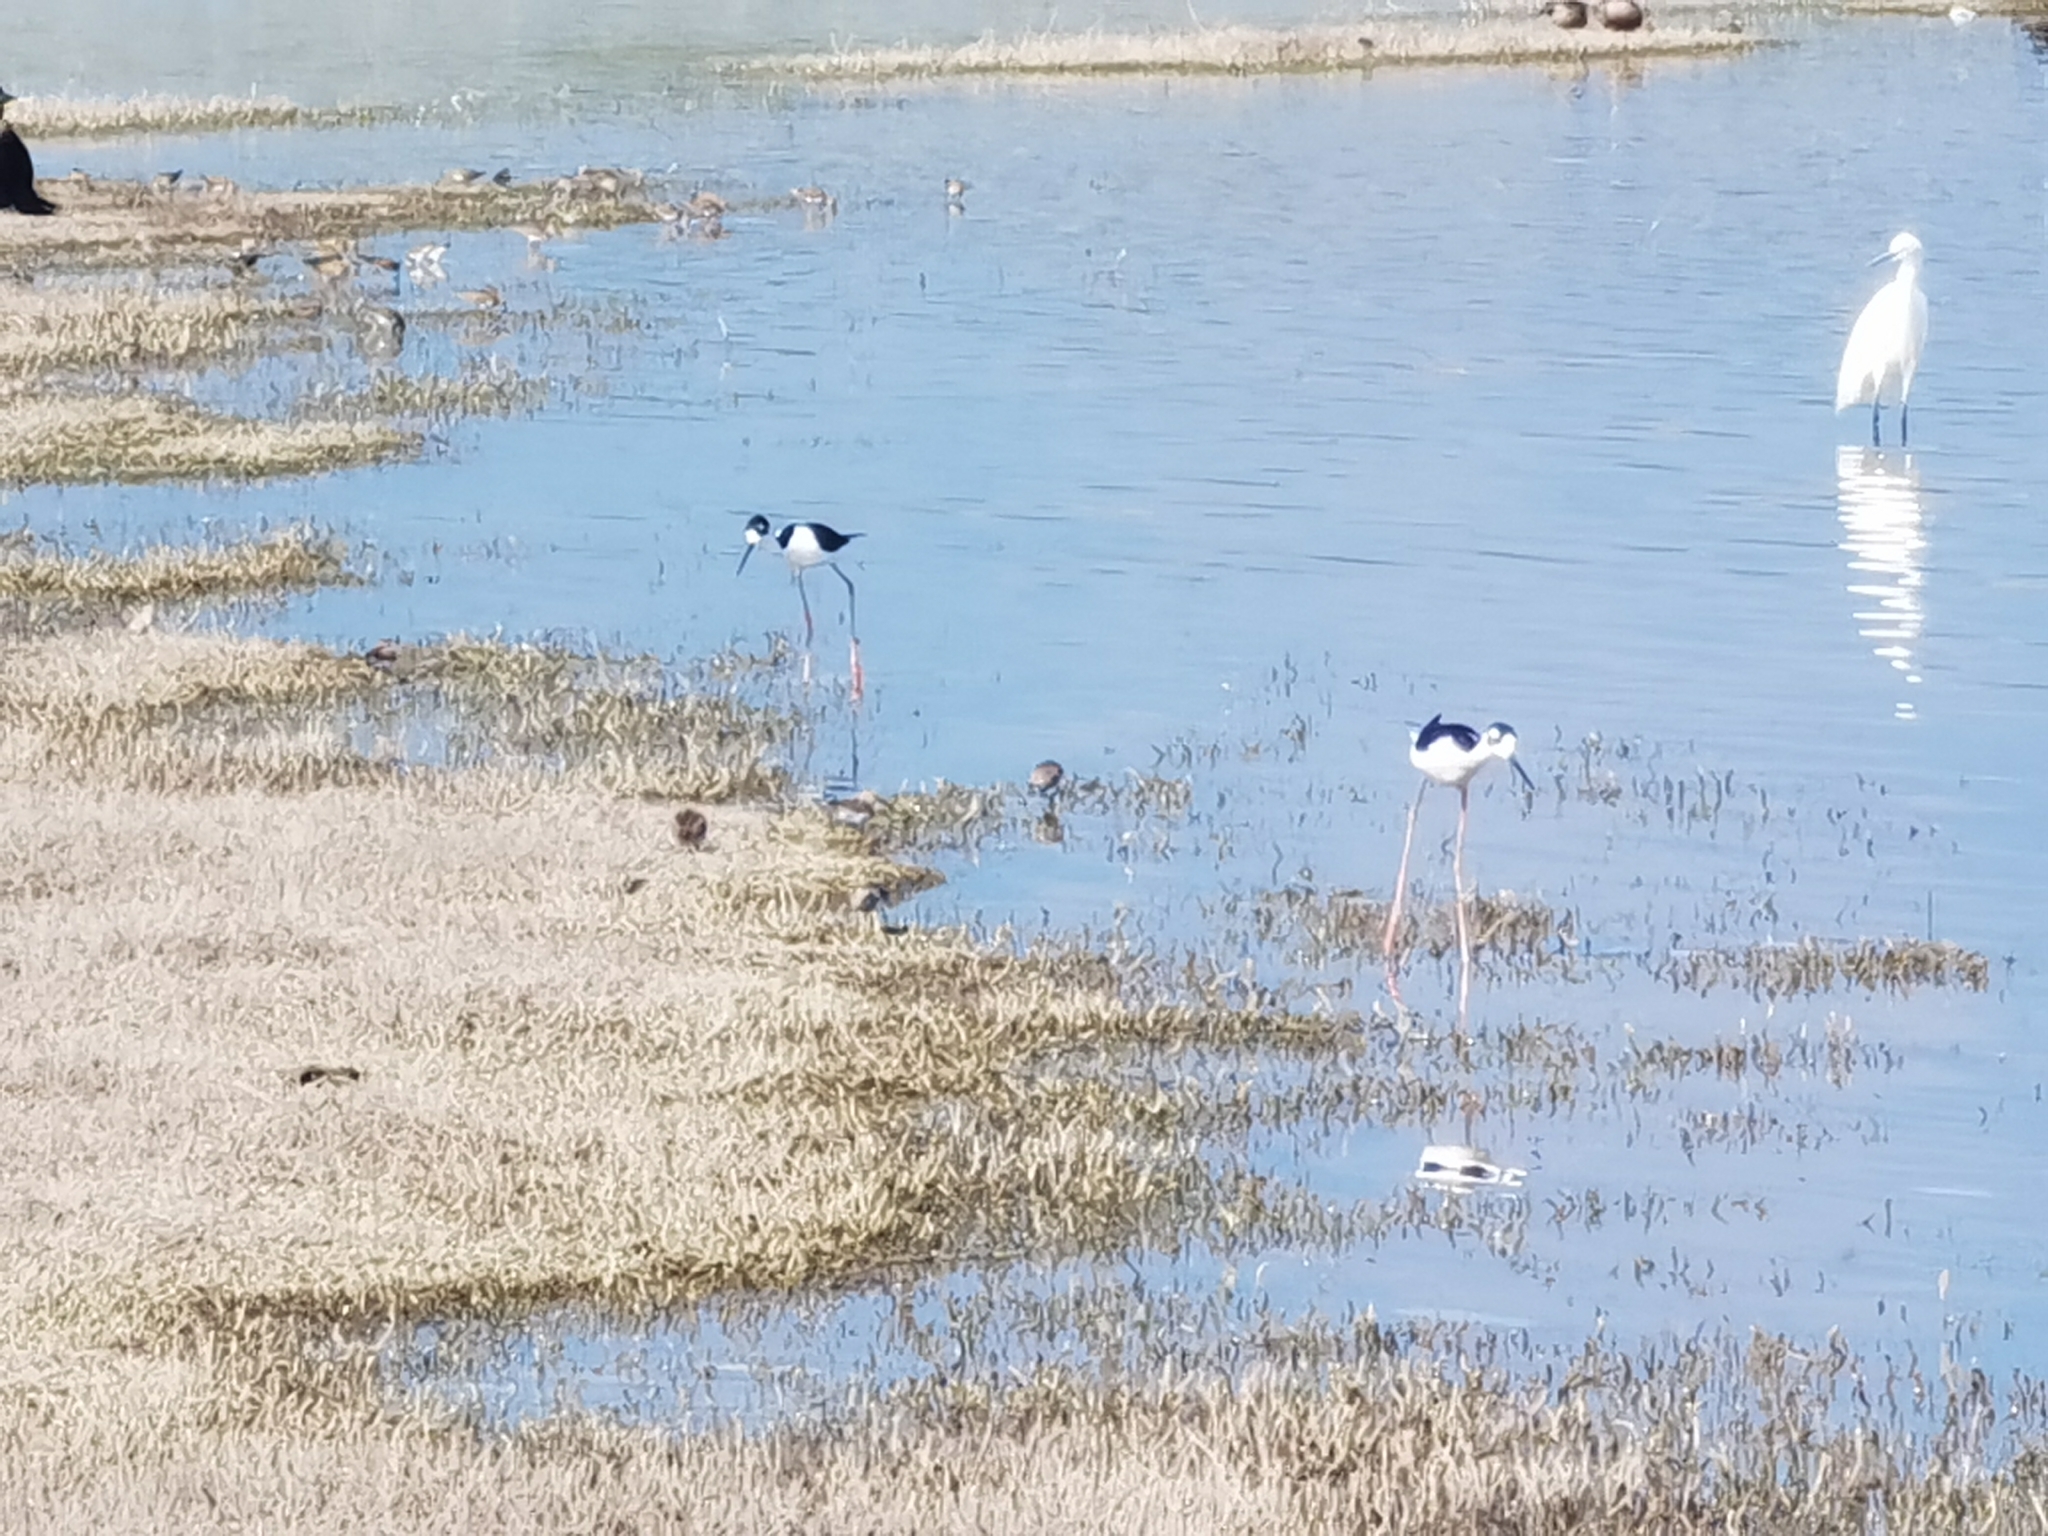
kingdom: Animalia
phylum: Chordata
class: Aves
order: Charadriiformes
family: Recurvirostridae
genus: Himantopus
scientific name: Himantopus mexicanus
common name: Black-necked stilt
